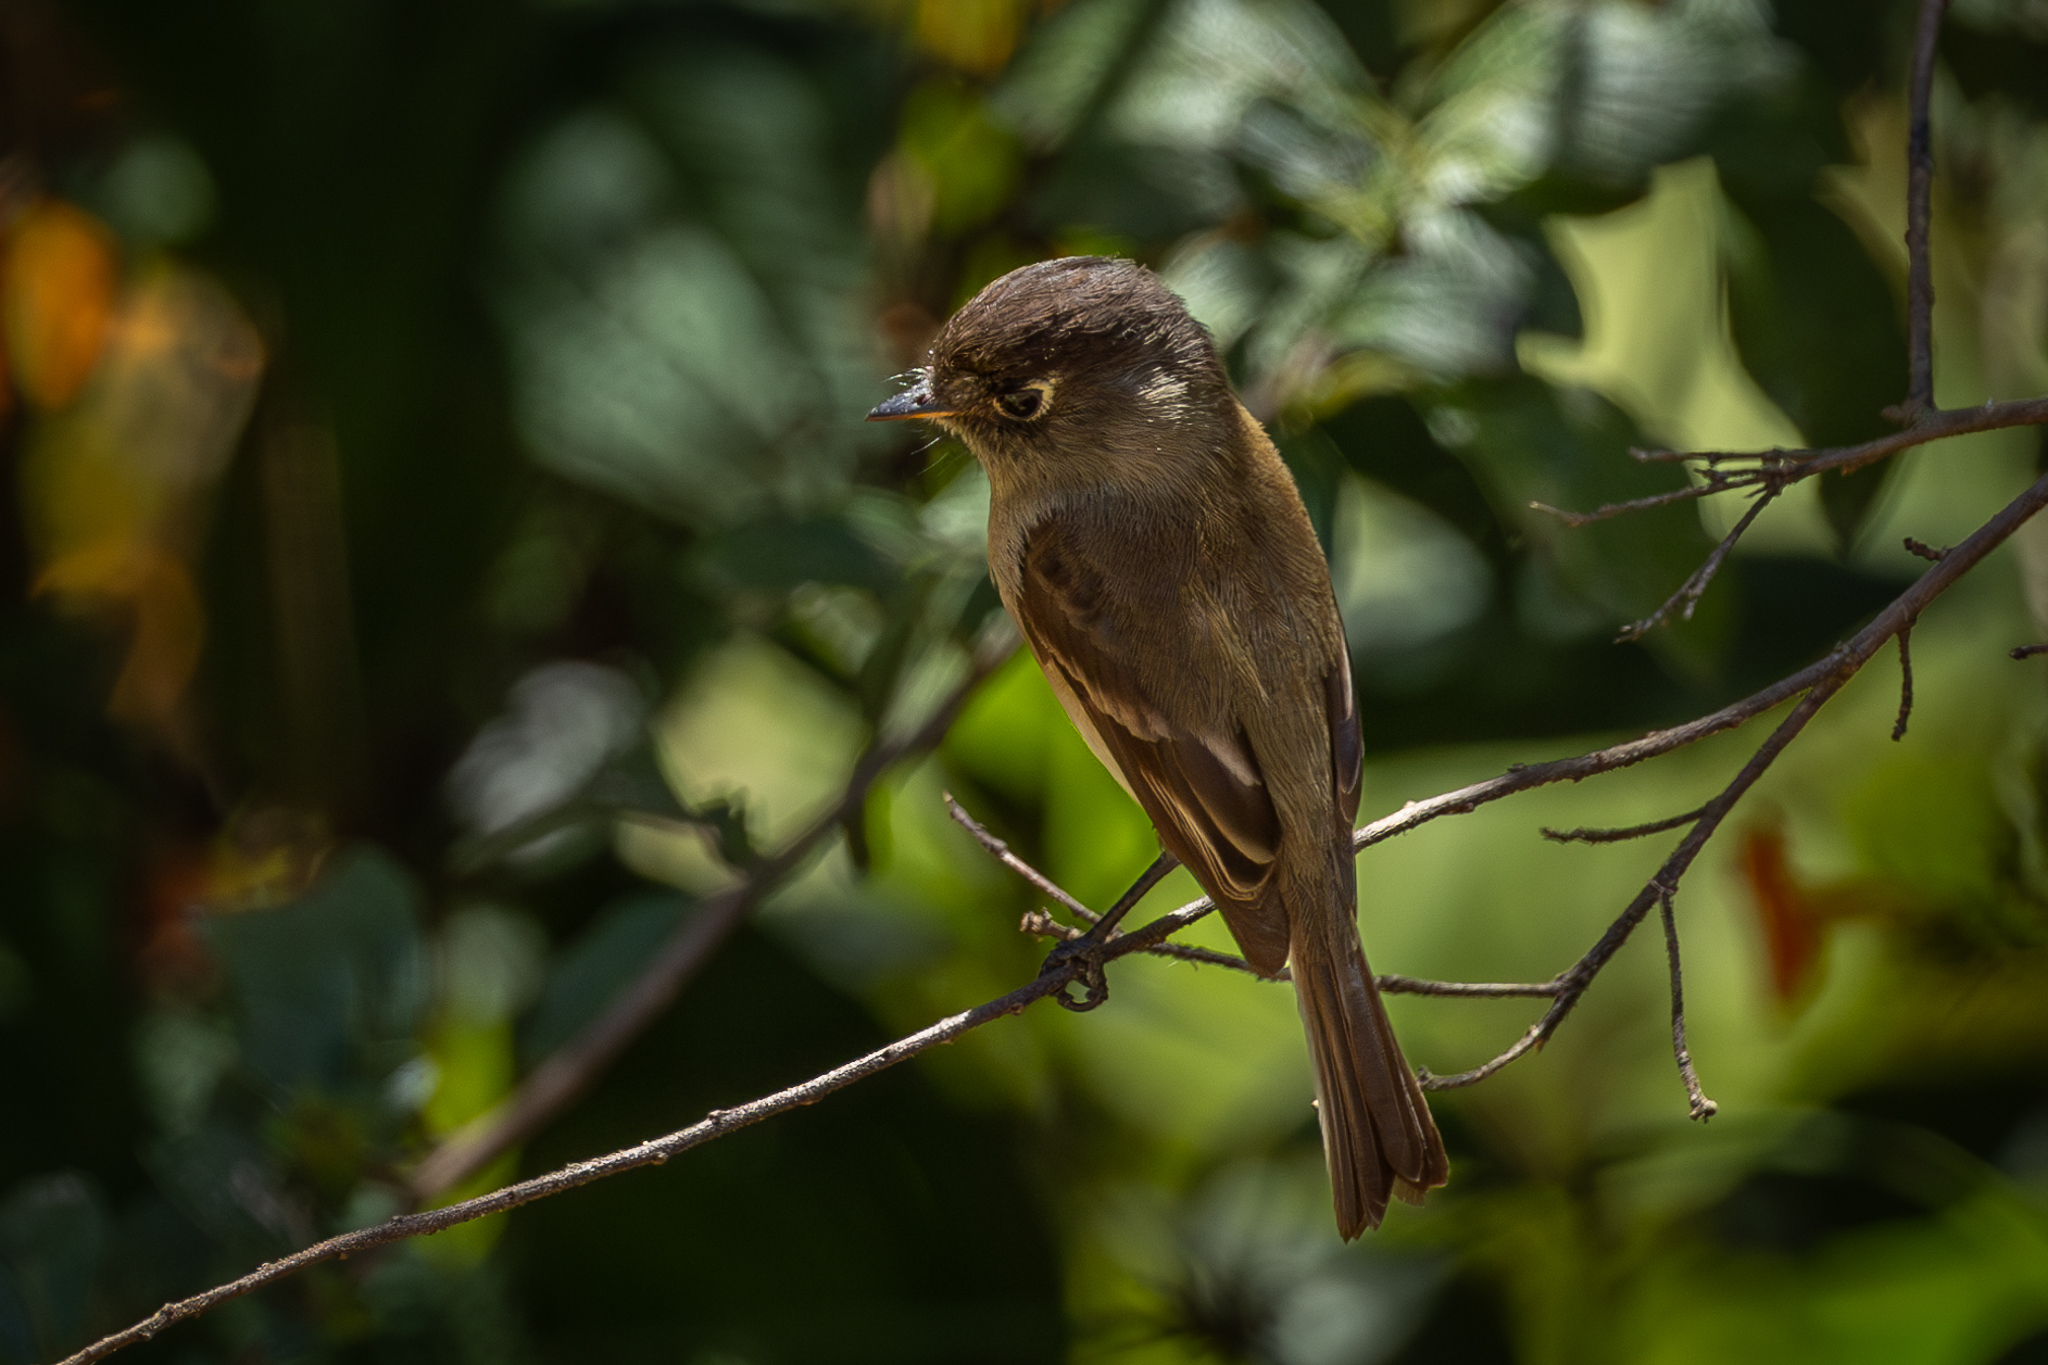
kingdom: Animalia
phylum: Chordata
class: Aves
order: Passeriformes
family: Tyrannidae
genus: Empidonax
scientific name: Empidonax atriceps
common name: Black-capped flycatcher
